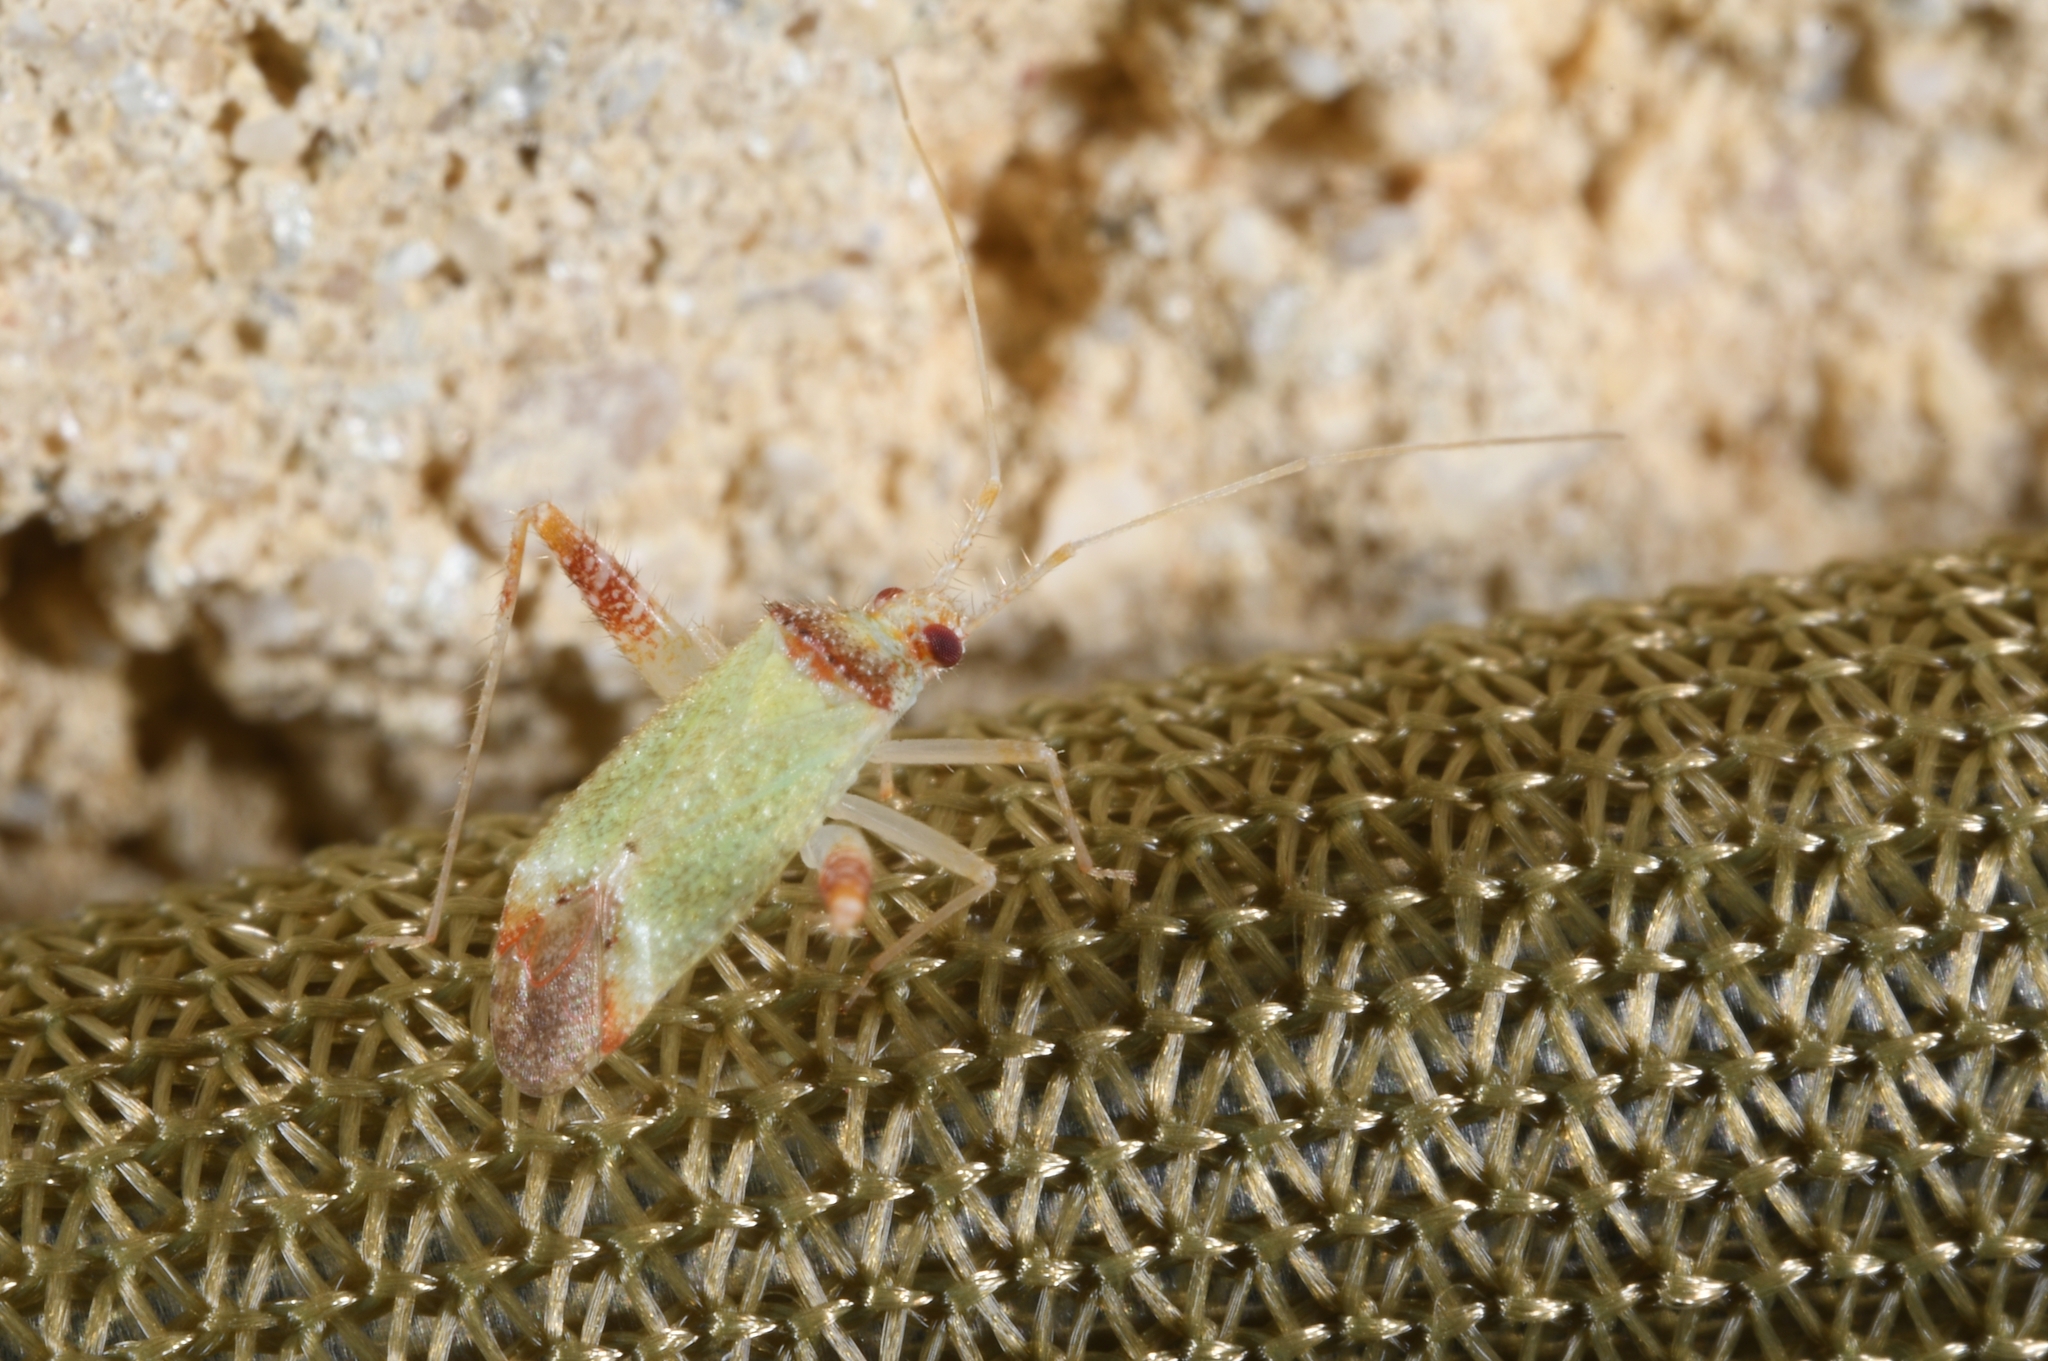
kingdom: Animalia
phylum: Arthropoda
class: Insecta
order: Hemiptera
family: Miridae
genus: Phytocoris
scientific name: Phytocoris abeillei
